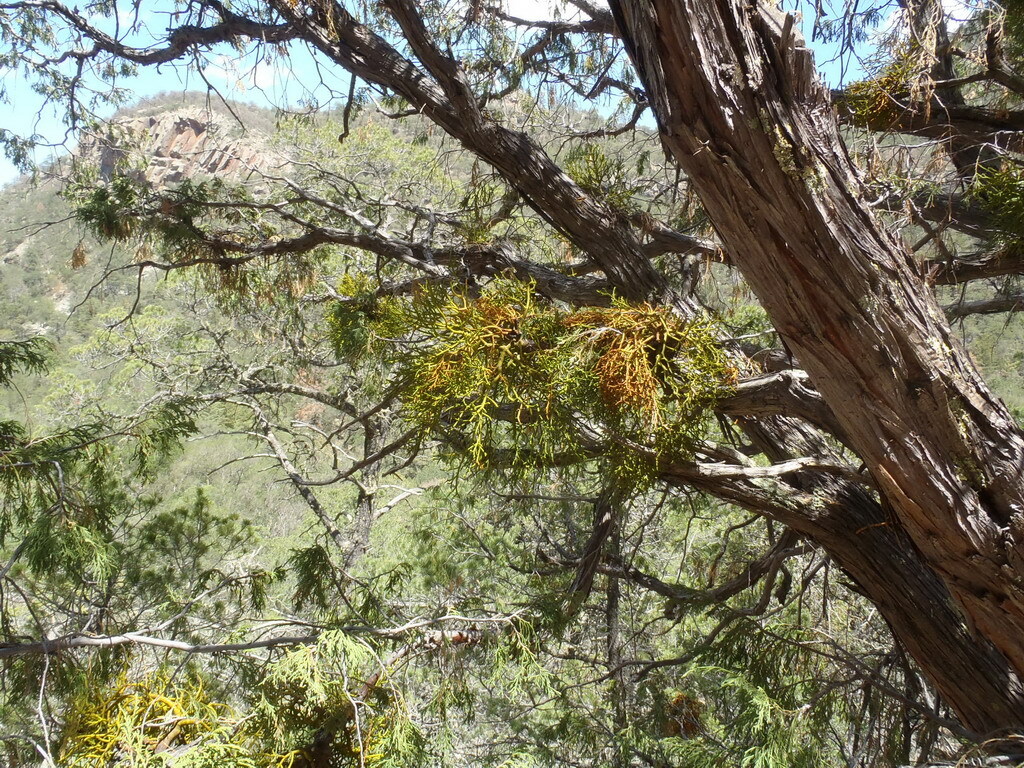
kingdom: Plantae
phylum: Tracheophyta
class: Pinopsida
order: Pinales
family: Cupressaceae
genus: Juniperus
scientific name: Juniperus flaccida
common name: Drooping juniper
